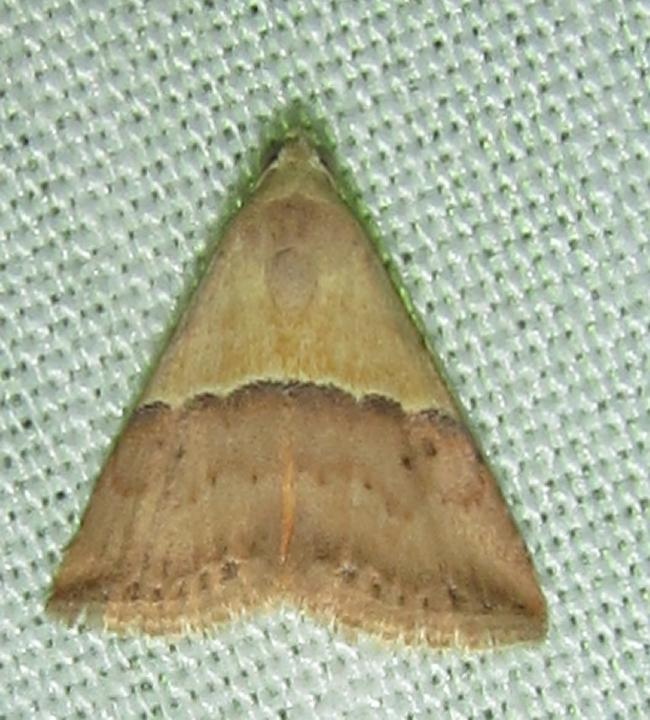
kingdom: Animalia
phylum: Arthropoda
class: Insecta
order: Lepidoptera
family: Noctuidae
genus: Eublemma
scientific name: Eublemma caffrorum
